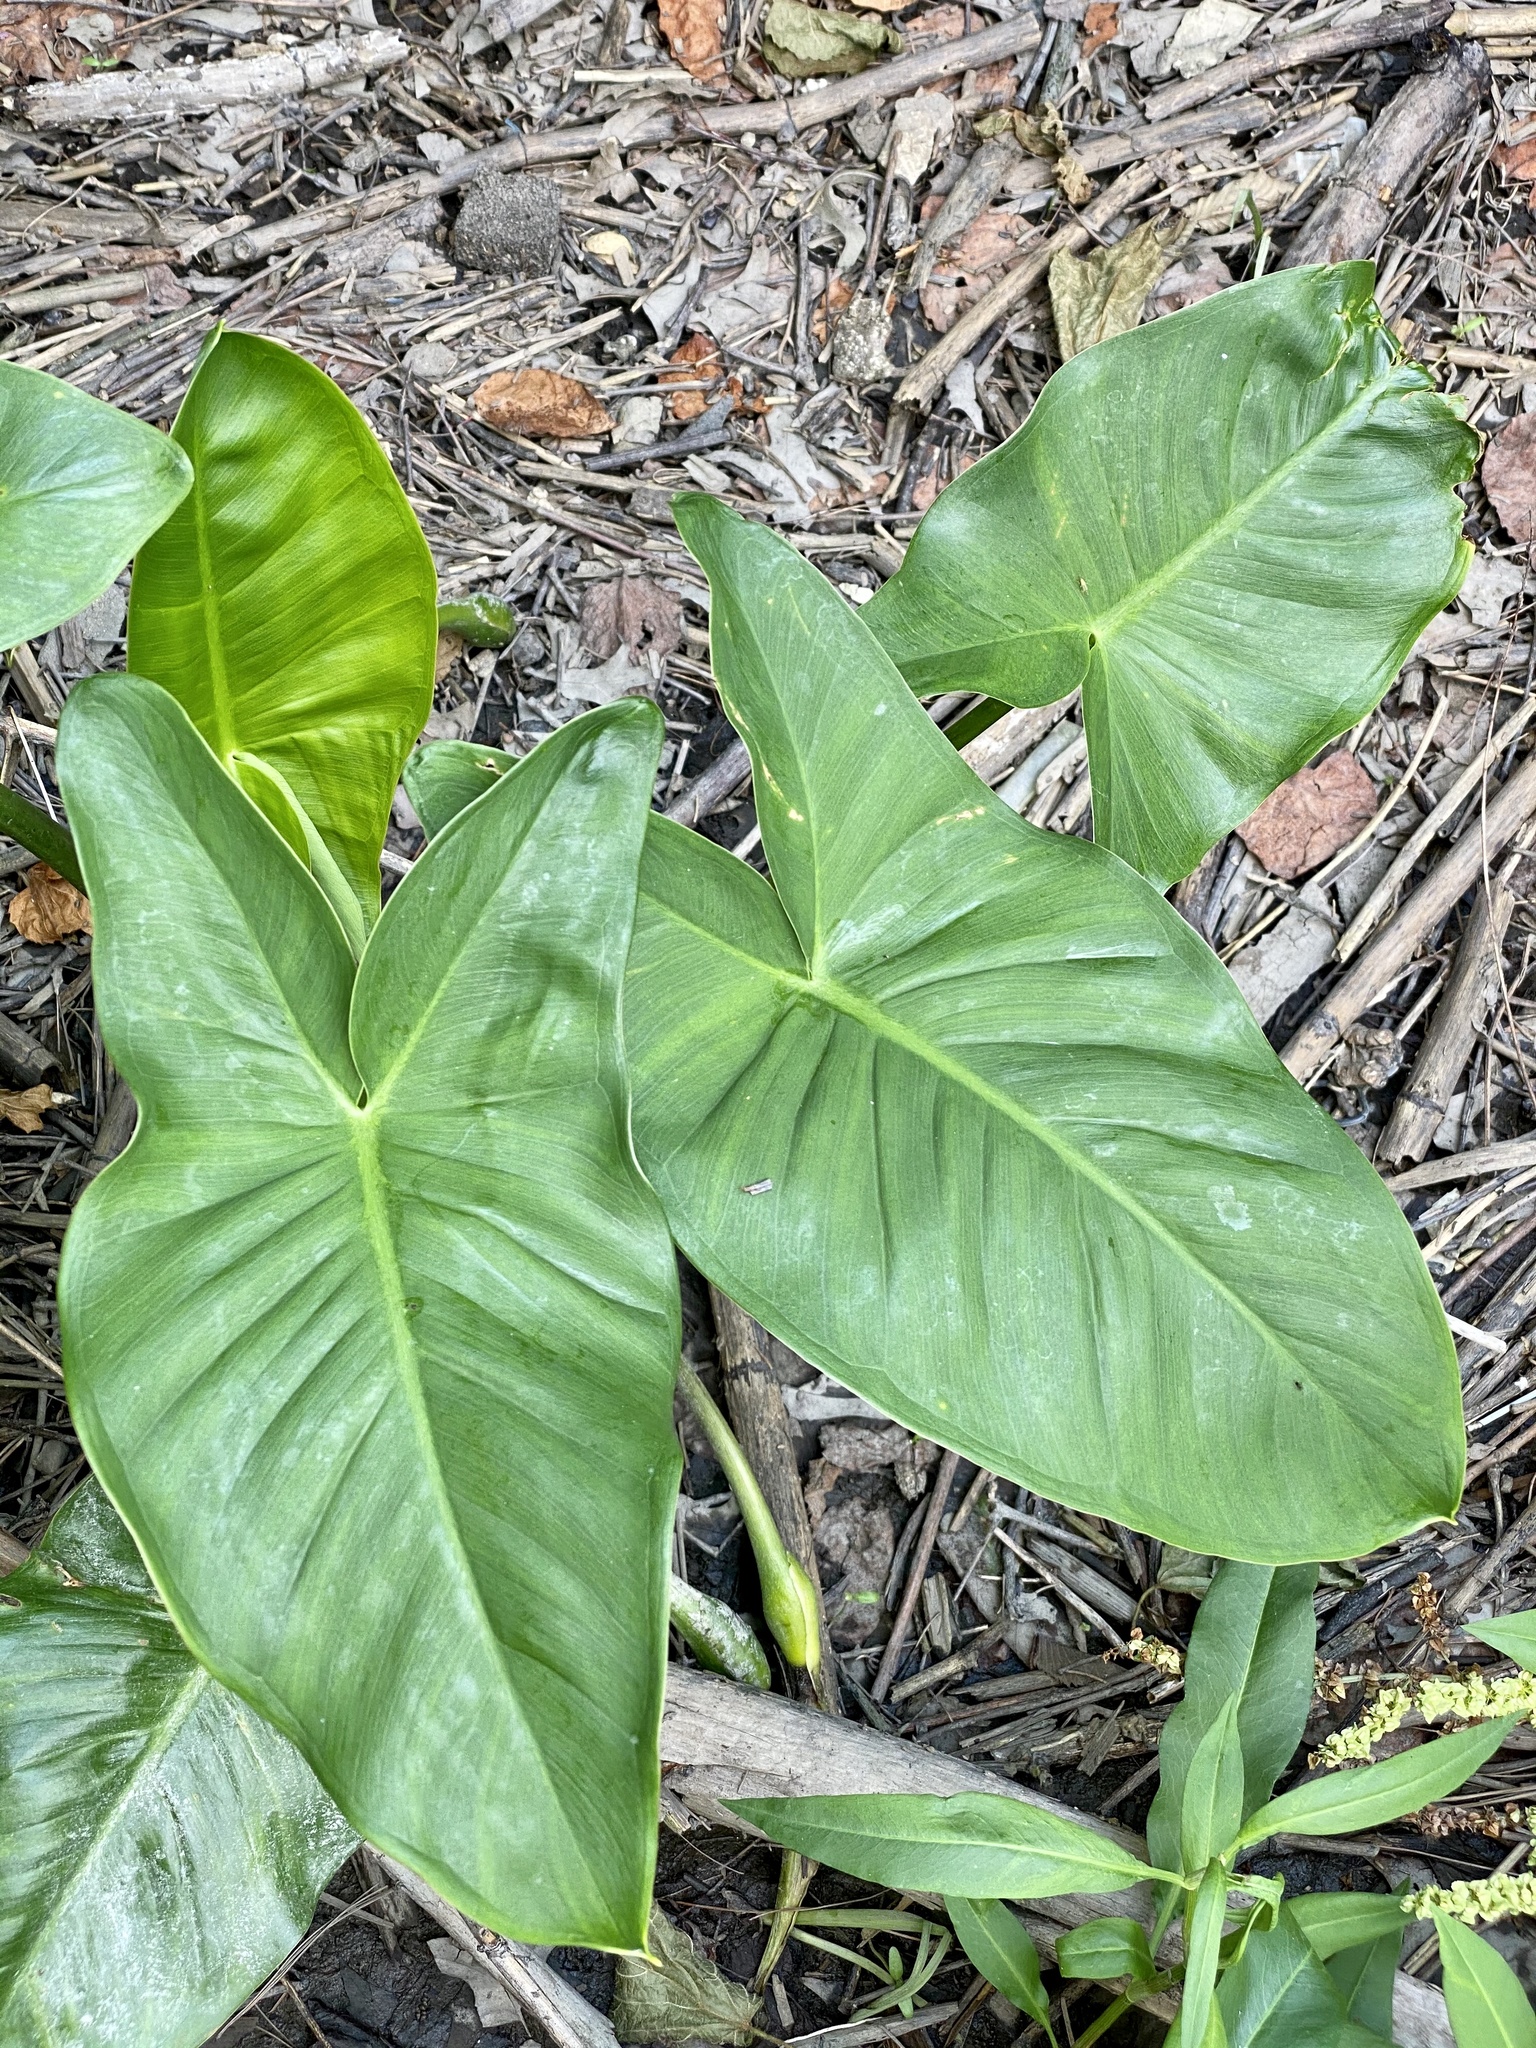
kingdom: Plantae
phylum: Tracheophyta
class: Liliopsida
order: Alismatales
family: Araceae
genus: Peltandra
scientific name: Peltandra virginica
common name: Arrow arum
